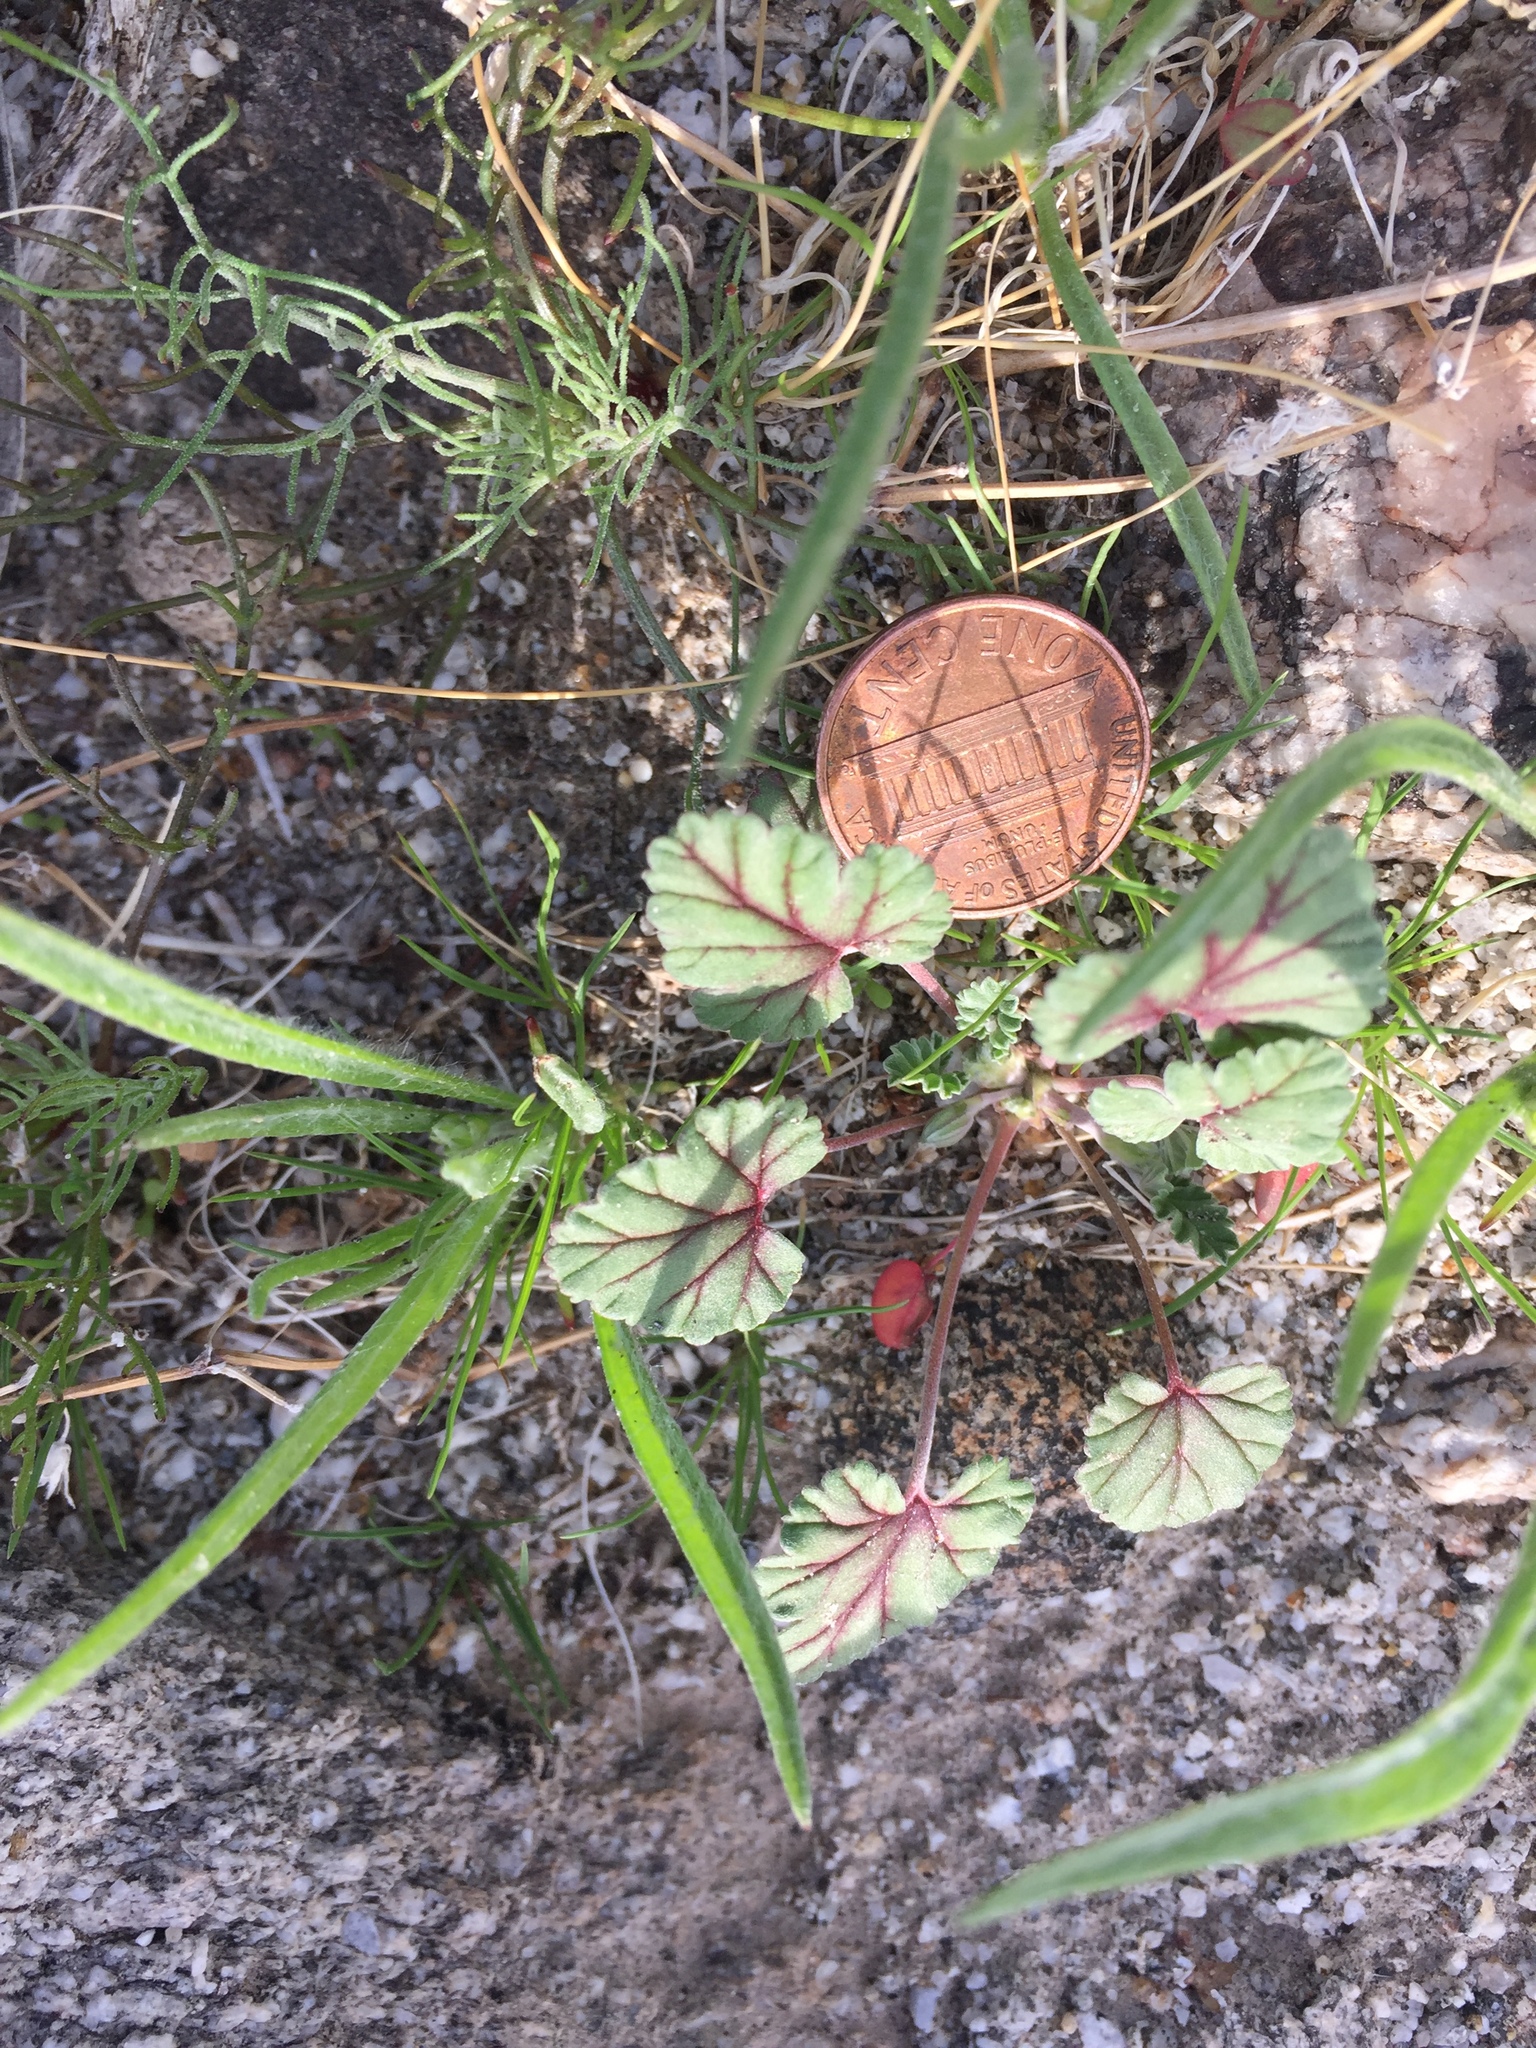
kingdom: Plantae
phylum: Tracheophyta
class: Magnoliopsida
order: Geraniales
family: Geraniaceae
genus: Erodium
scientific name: Erodium texanum
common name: Texas stork's-bill
